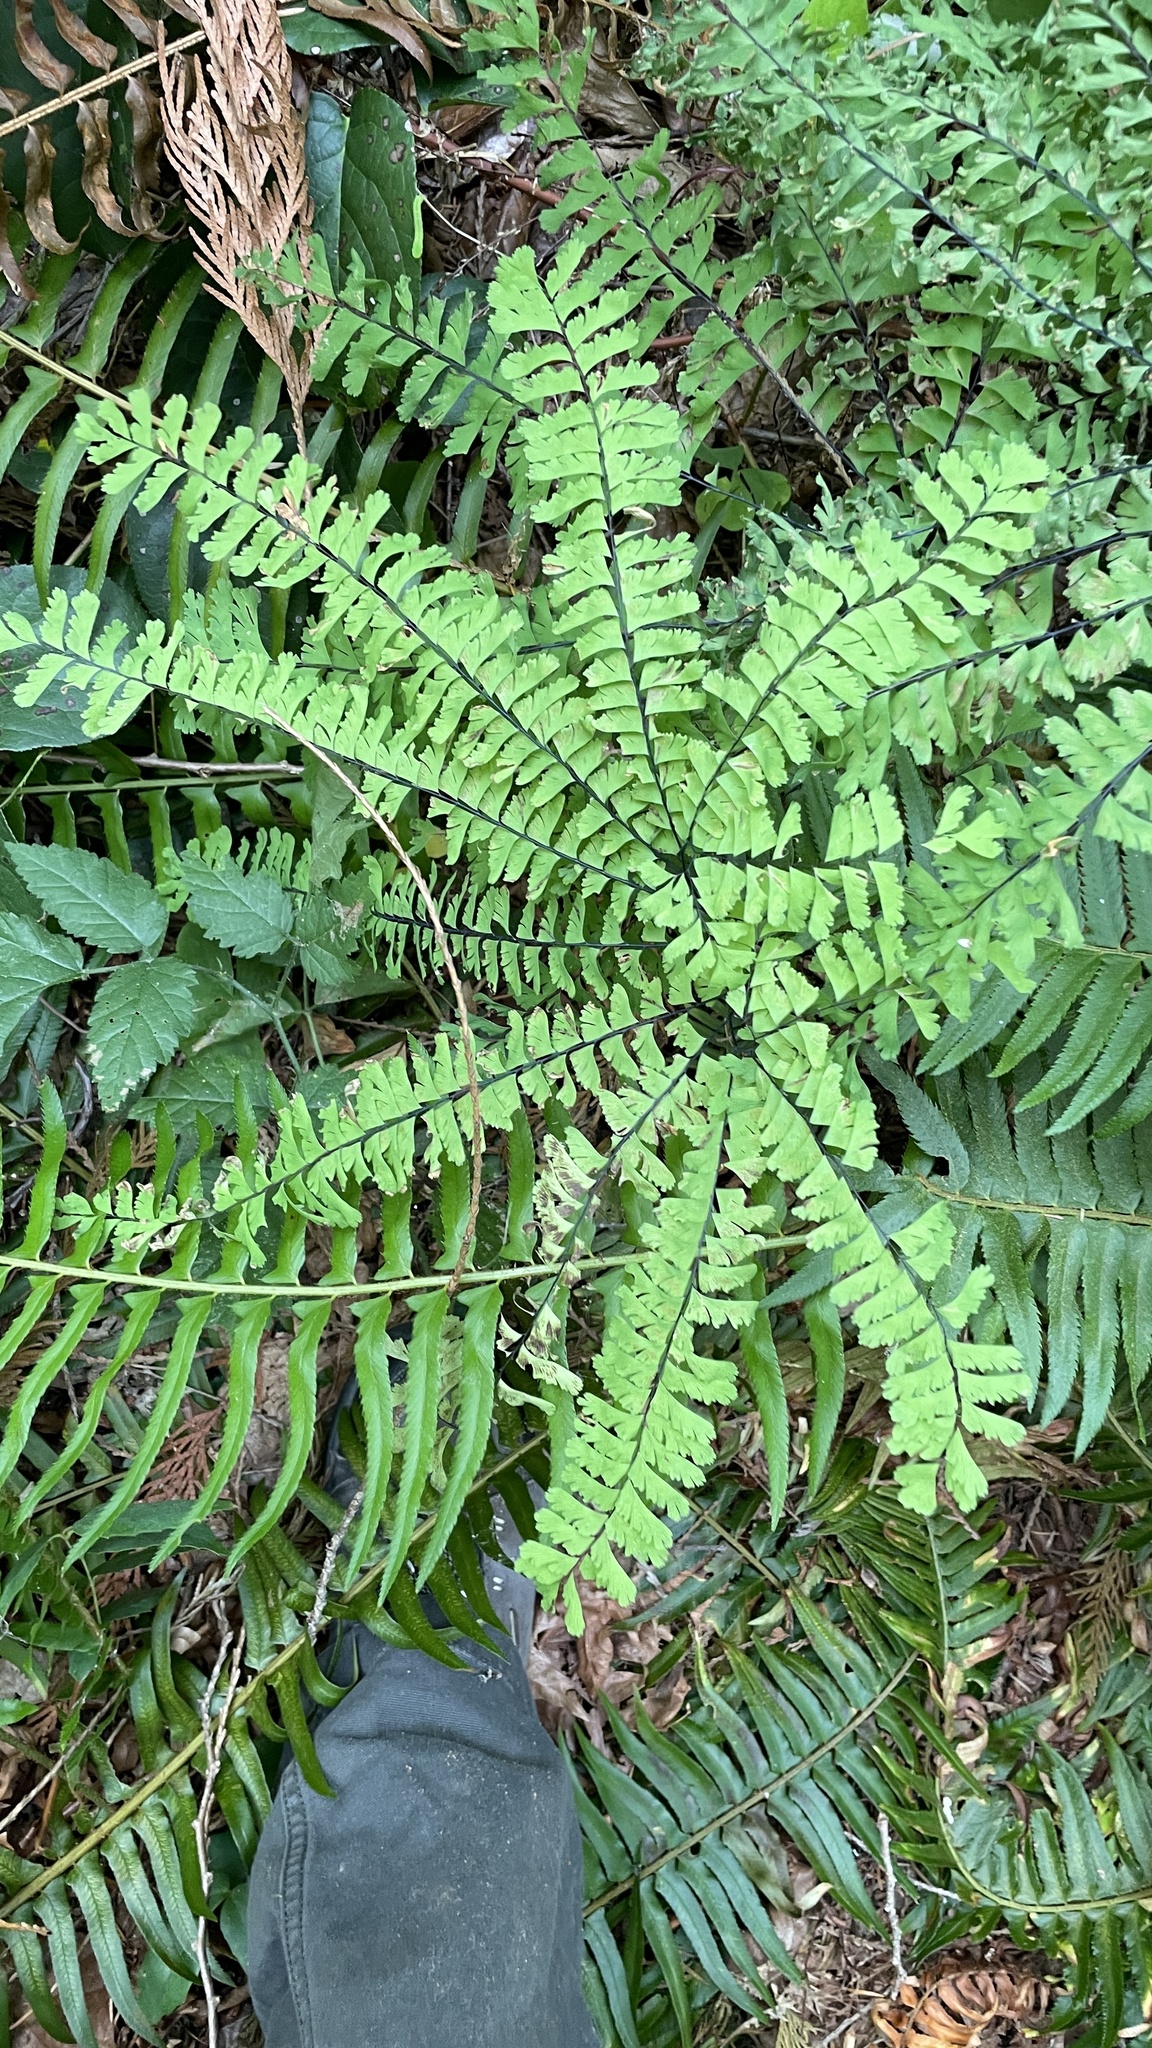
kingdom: Plantae
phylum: Tracheophyta
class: Polypodiopsida
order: Polypodiales
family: Pteridaceae
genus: Adiantum
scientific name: Adiantum aleuticum
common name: Aleutian maidenhair fern
